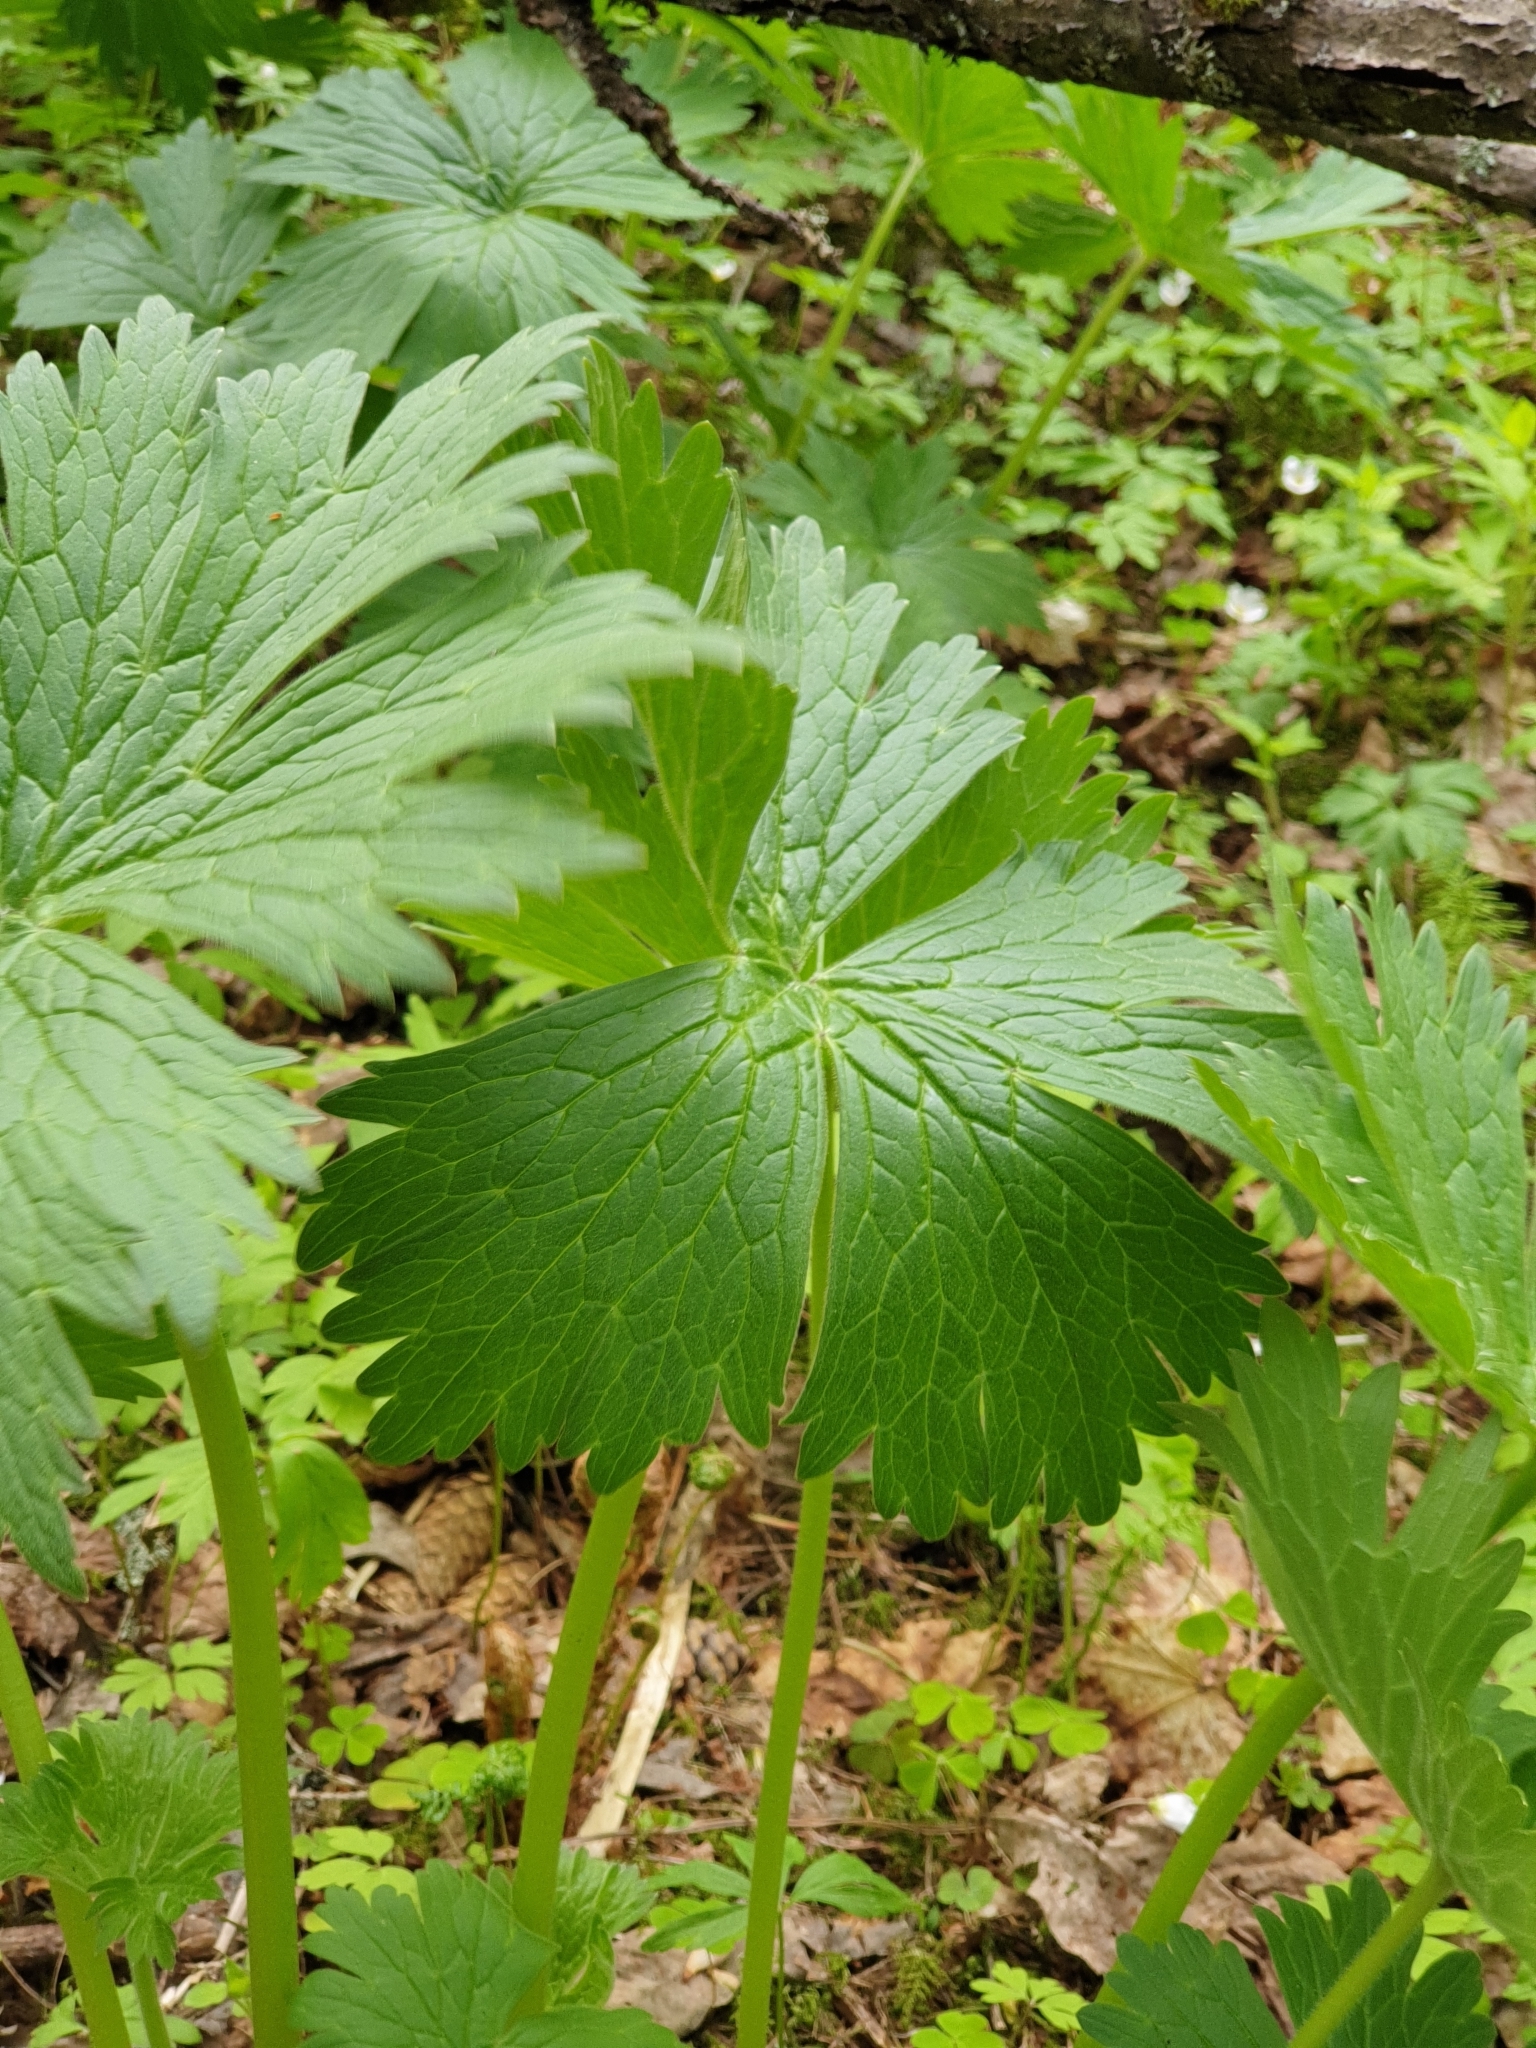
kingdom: Plantae
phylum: Tracheophyta
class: Magnoliopsida
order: Ranunculales
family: Ranunculaceae
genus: Aconitum
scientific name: Aconitum septentrionale
